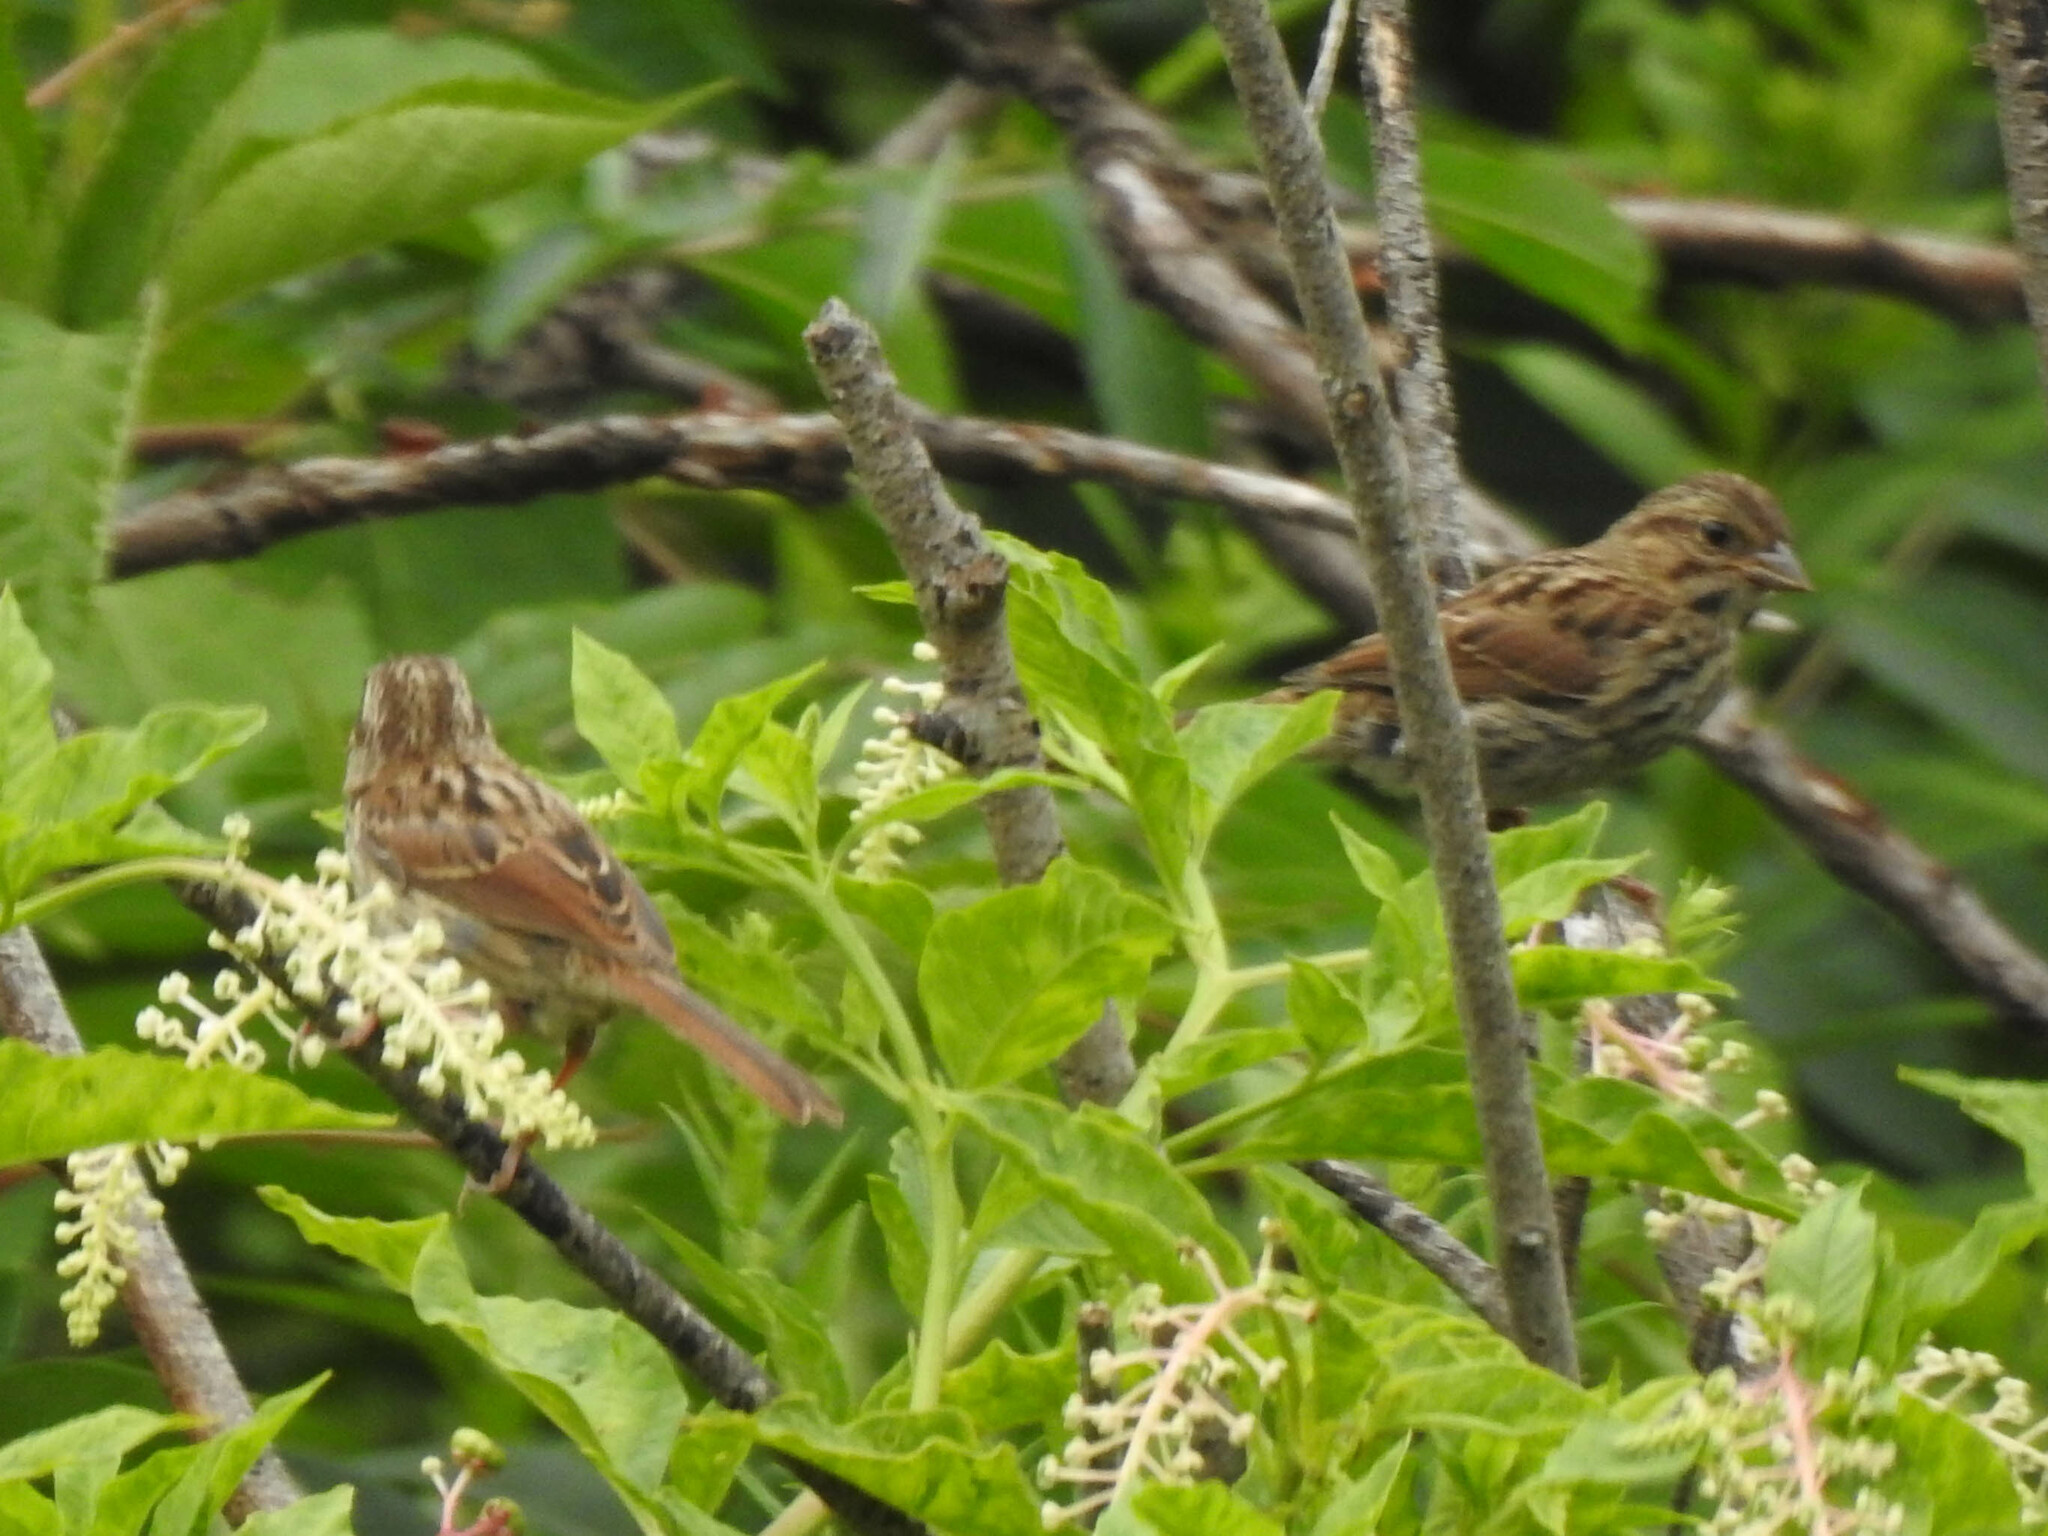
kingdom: Animalia
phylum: Chordata
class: Aves
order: Passeriformes
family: Passerellidae
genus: Melospiza
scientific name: Melospiza melodia
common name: Song sparrow
